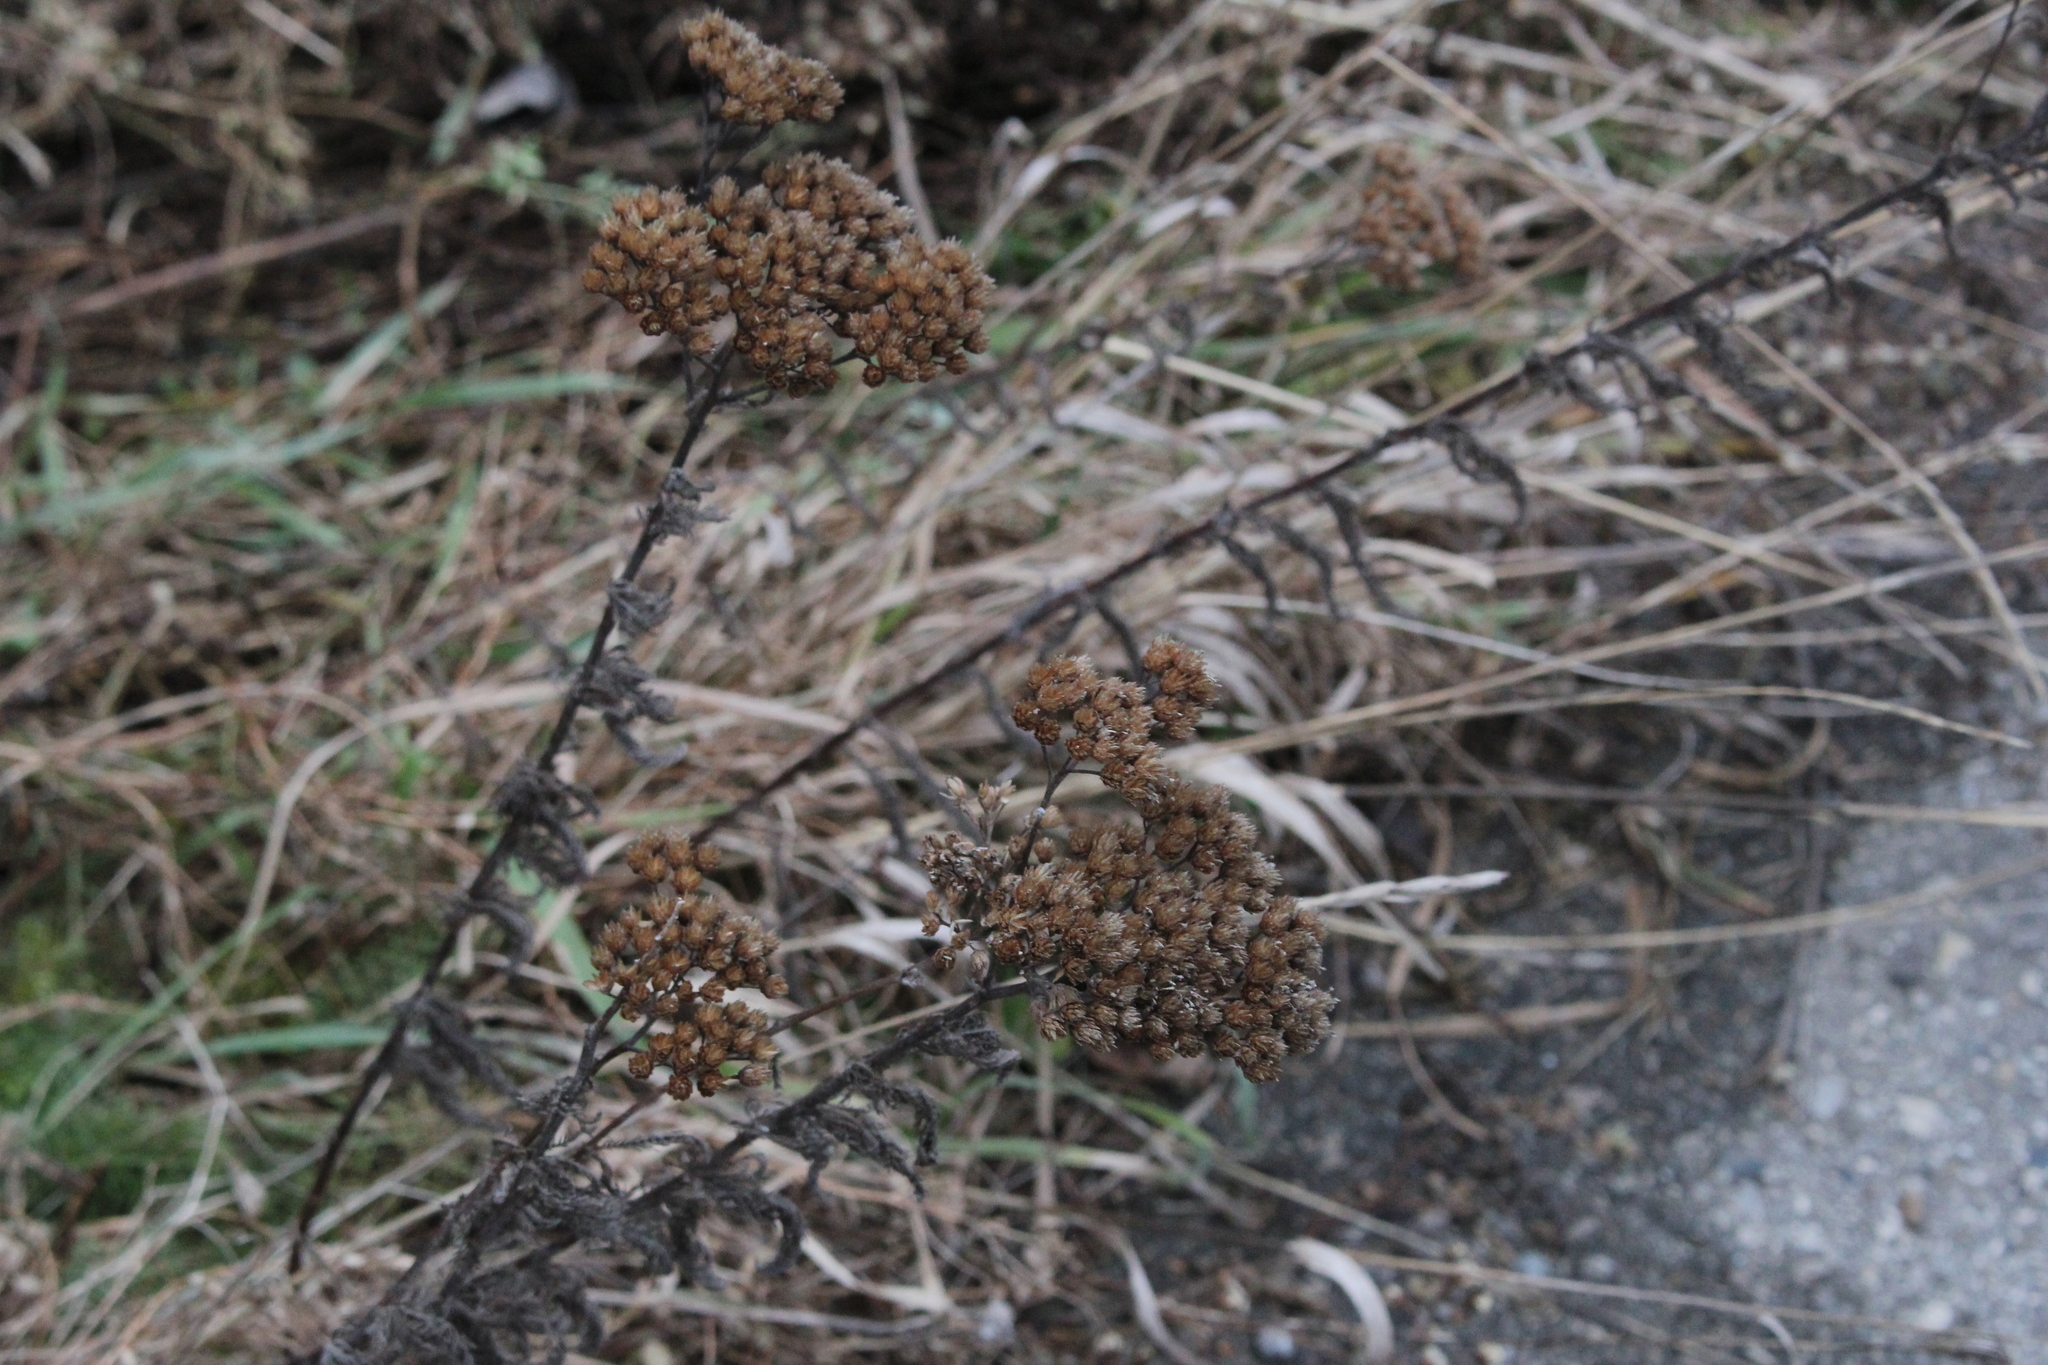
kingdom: Plantae
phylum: Tracheophyta
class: Magnoliopsida
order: Asterales
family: Asteraceae
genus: Achillea
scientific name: Achillea millefolium
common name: Yarrow
